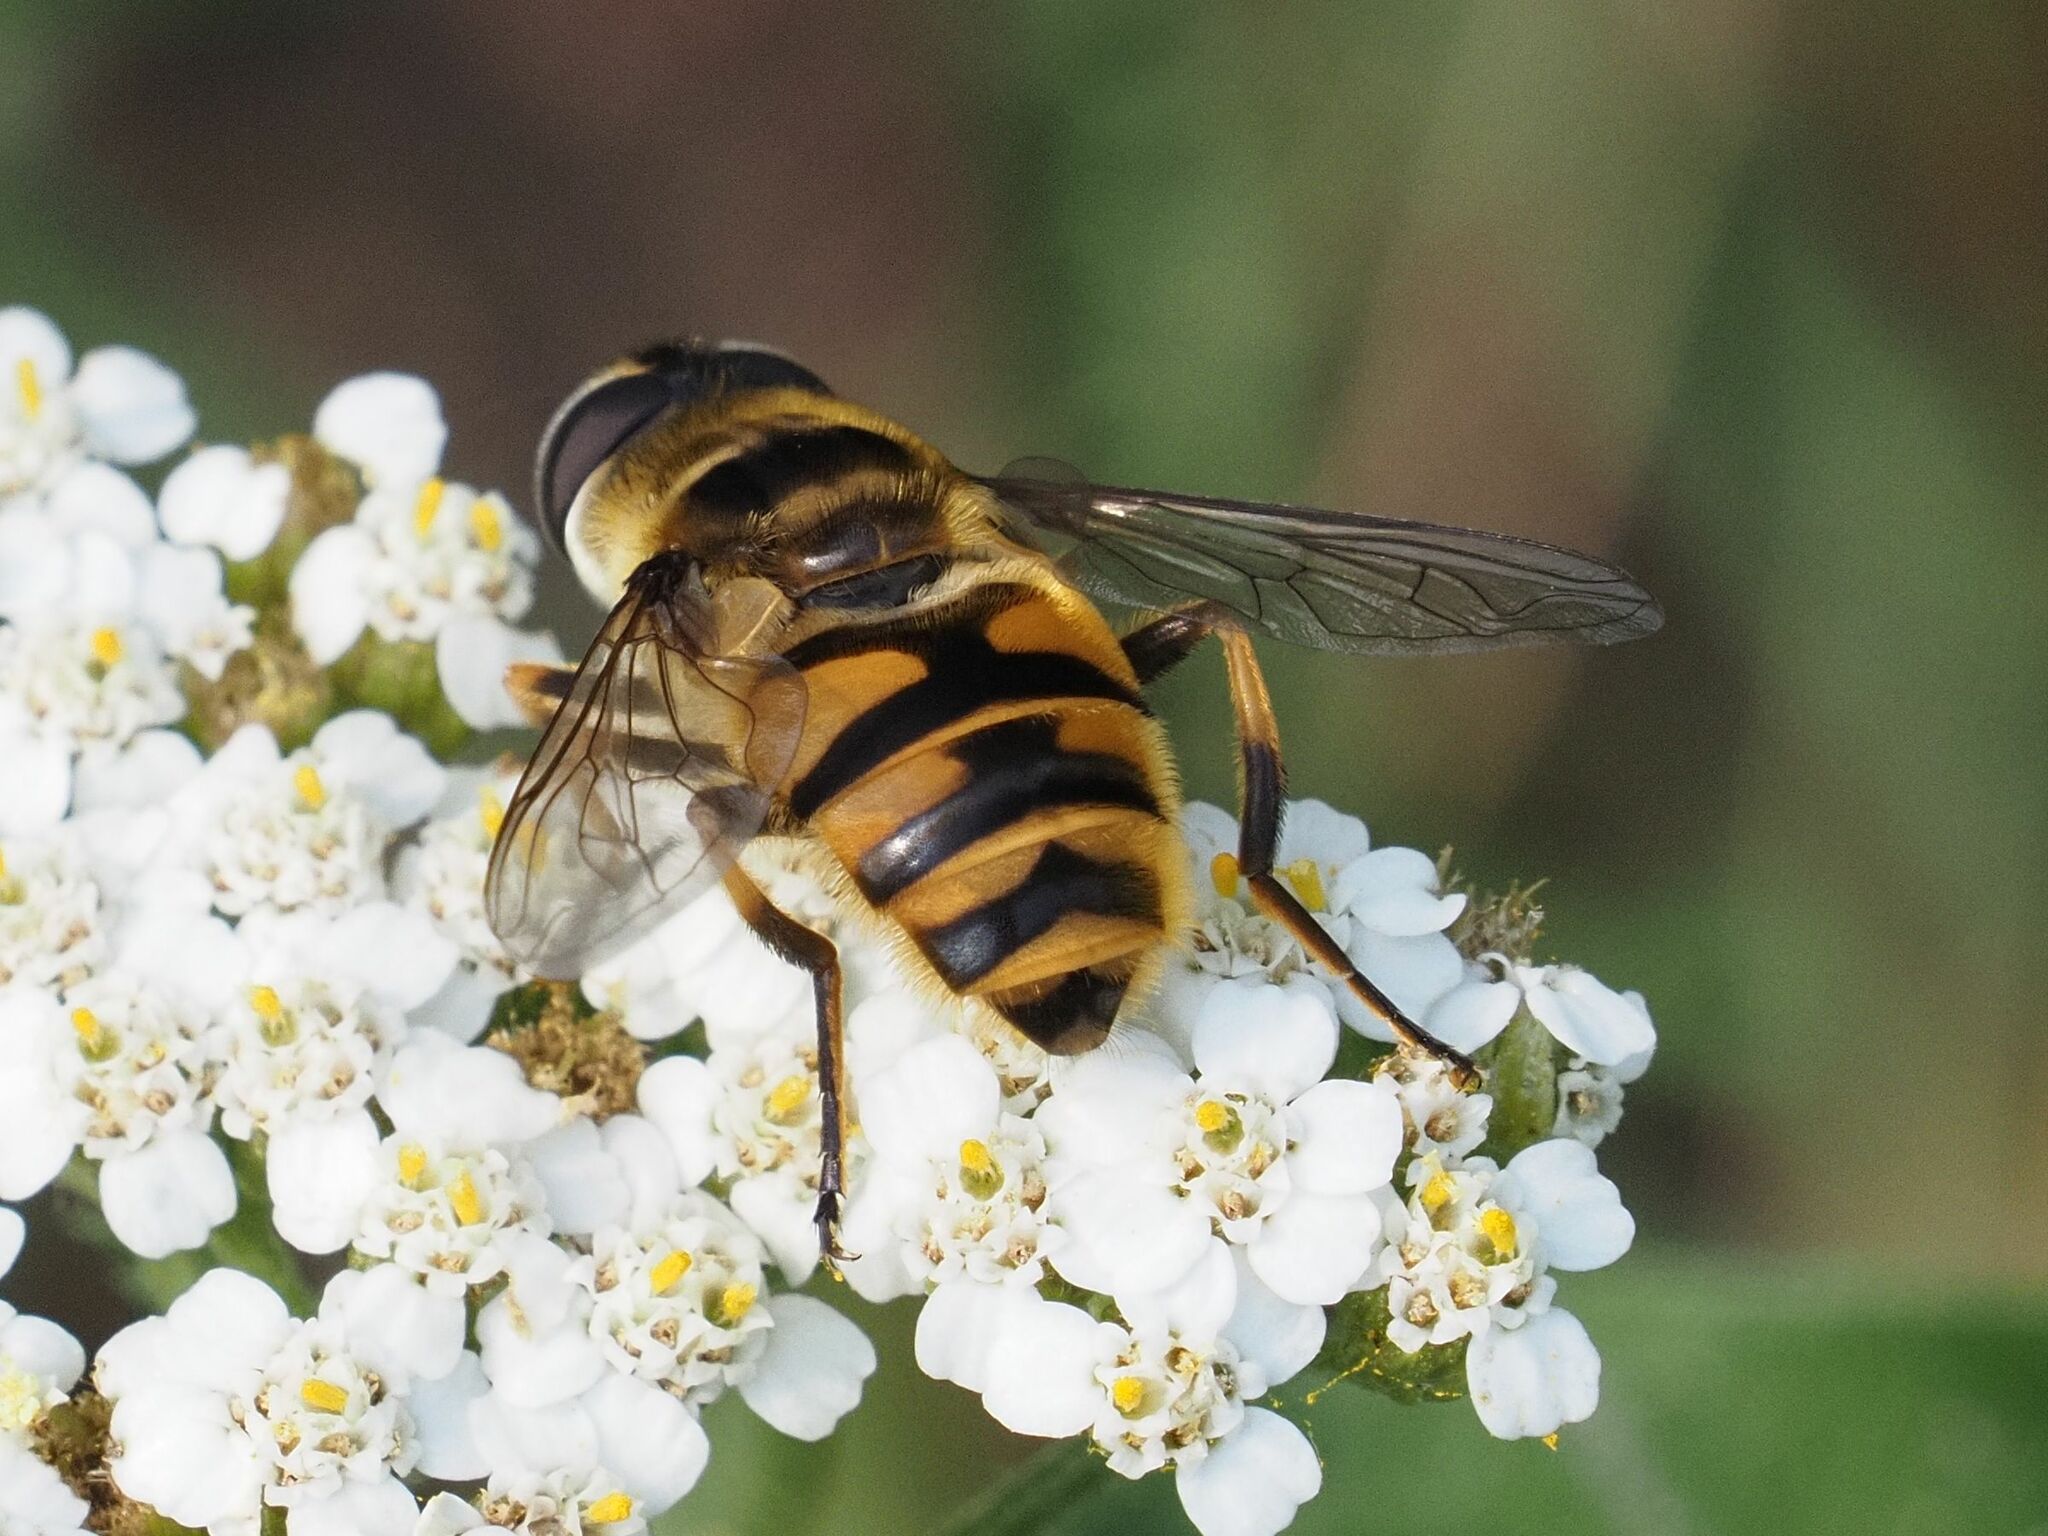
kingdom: Animalia
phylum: Arthropoda
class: Insecta
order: Diptera
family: Syrphidae
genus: Myathropa
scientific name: Myathropa florea
